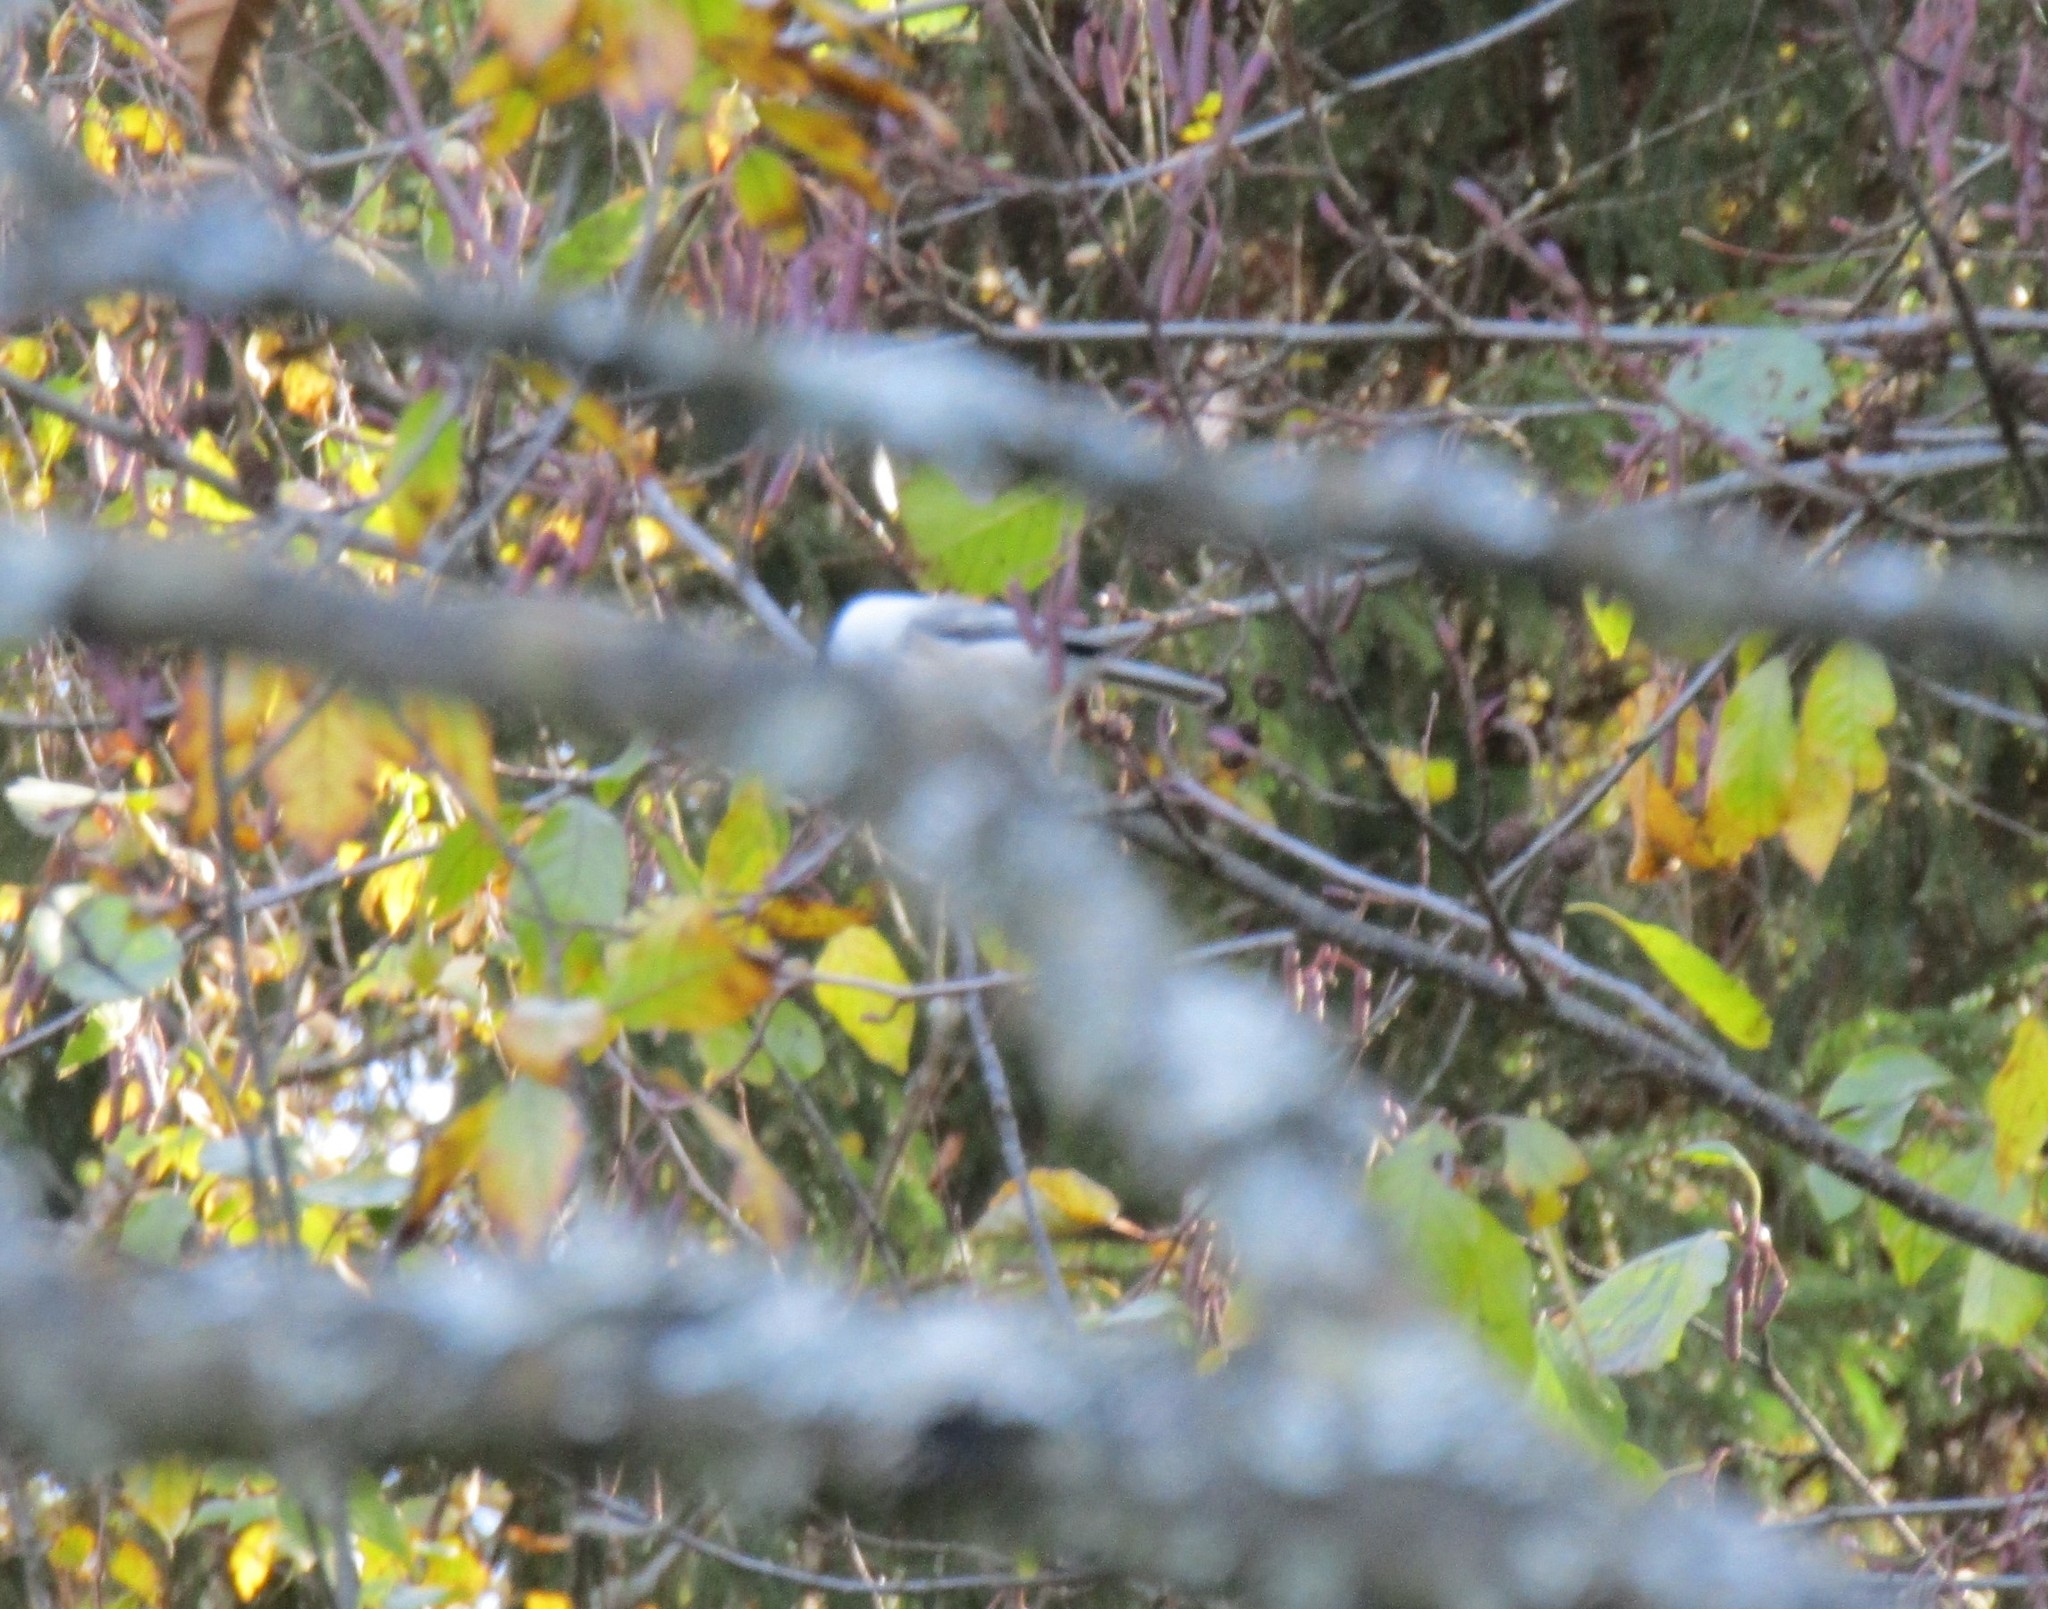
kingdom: Animalia
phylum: Chordata
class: Aves
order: Passeriformes
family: Paridae
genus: Poecile
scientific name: Poecile montanus
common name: Willow tit
